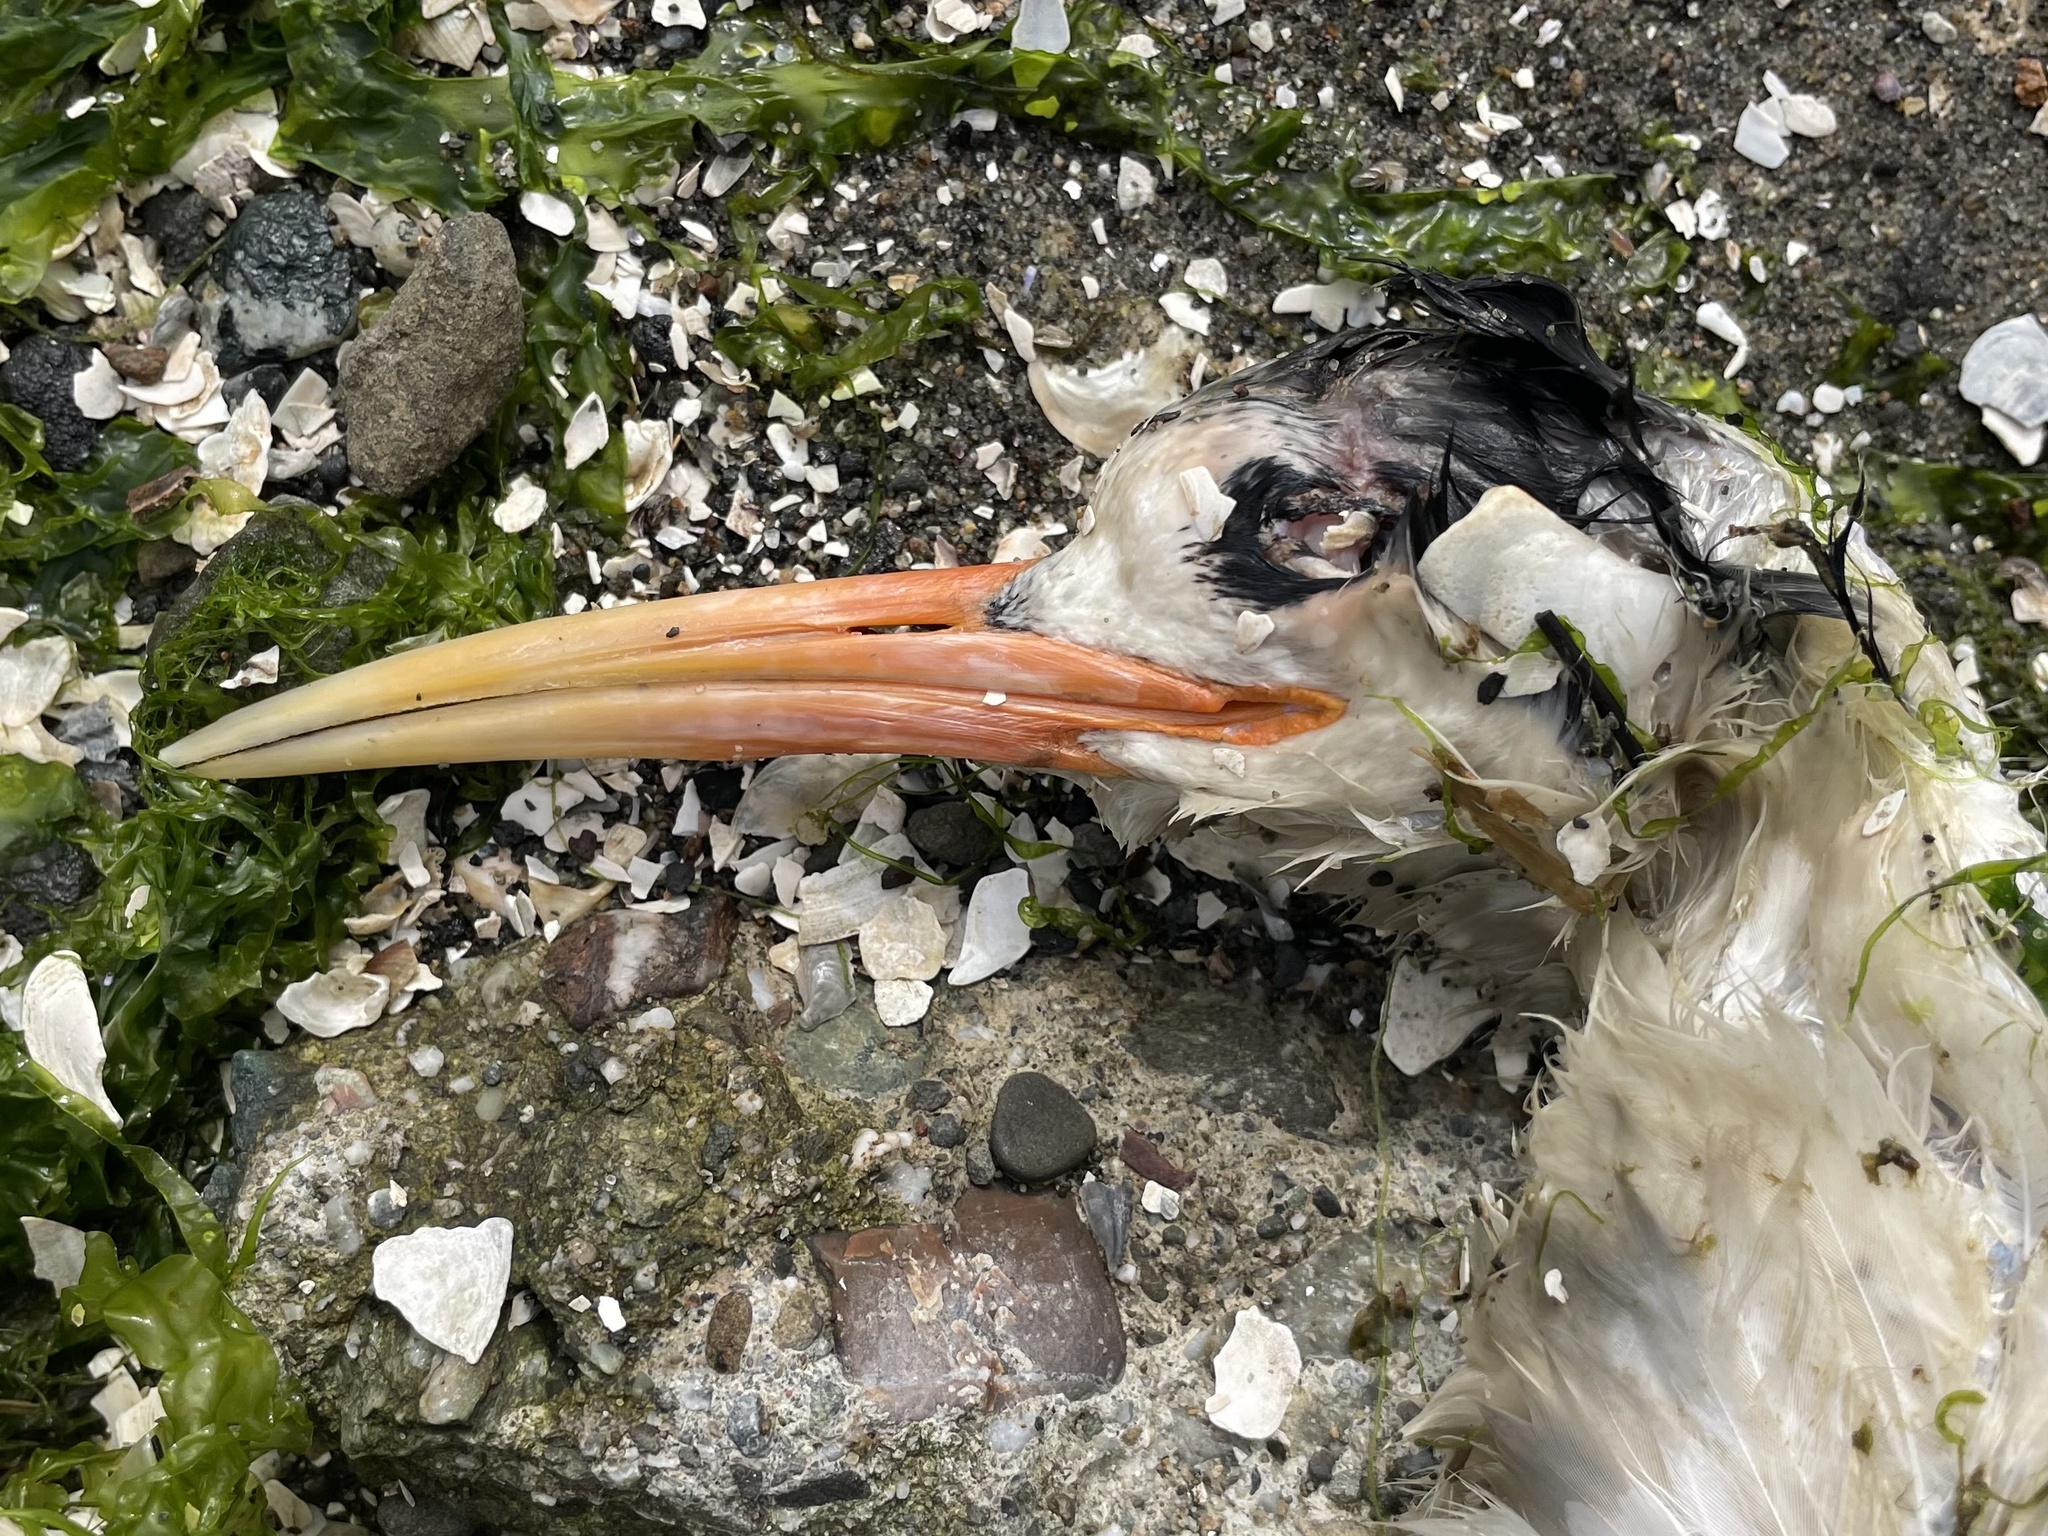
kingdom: Animalia
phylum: Chordata
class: Aves
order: Charadriiformes
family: Laridae
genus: Thalasseus
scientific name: Thalasseus elegans
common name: Elegant tern
